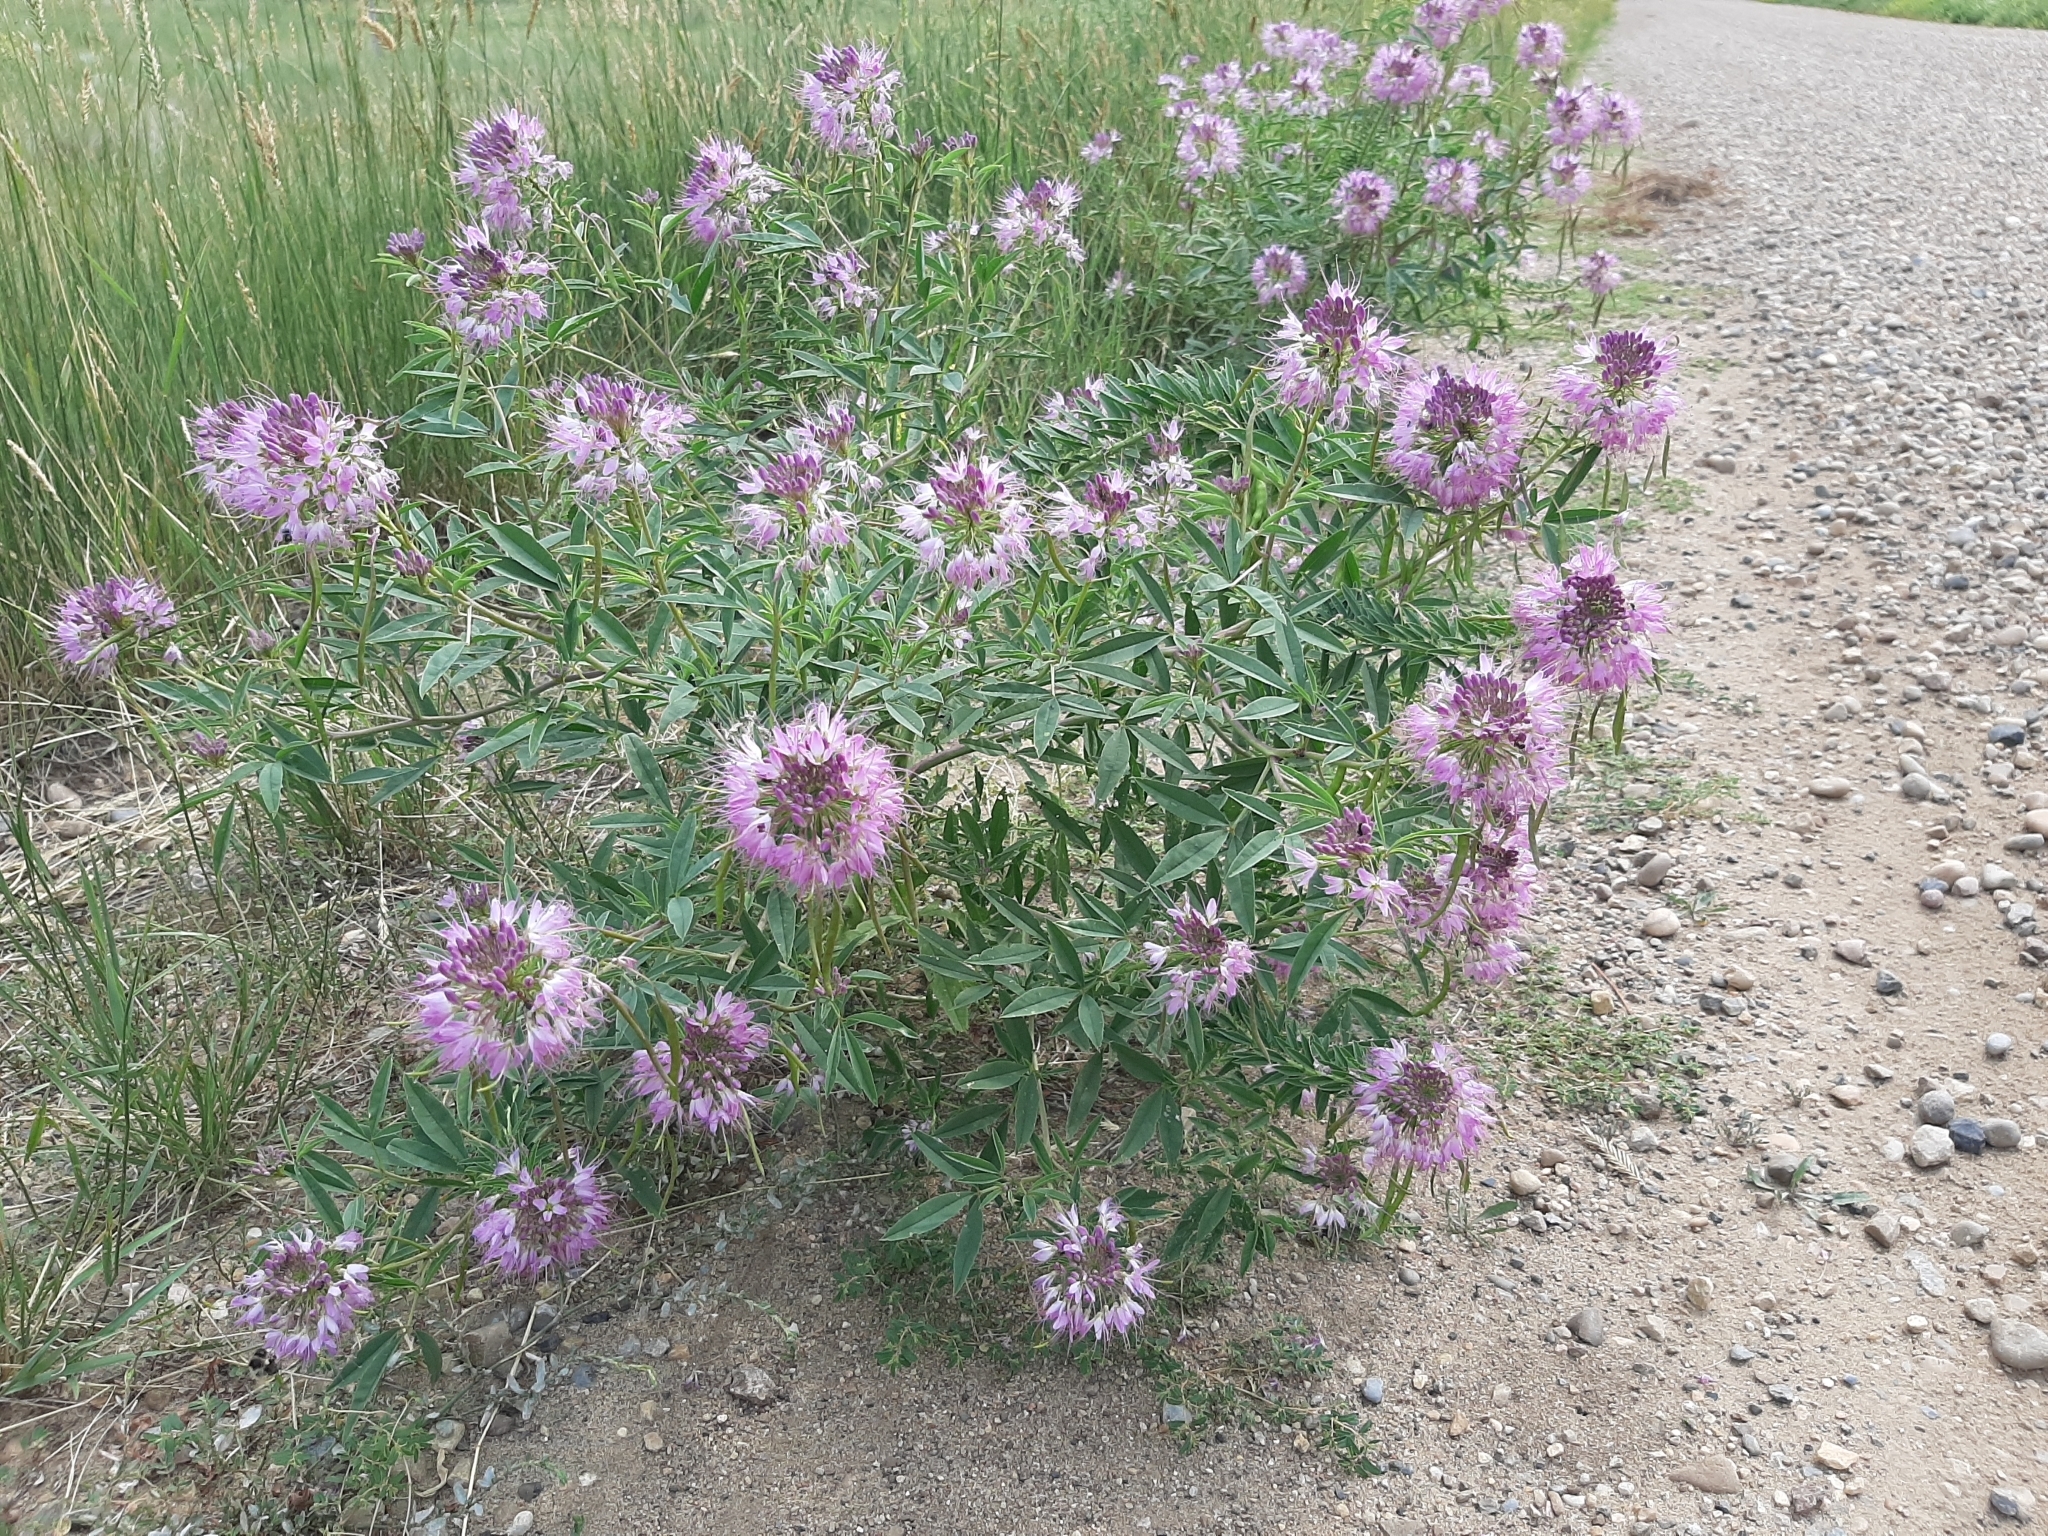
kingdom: Plantae
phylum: Tracheophyta
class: Magnoliopsida
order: Brassicales
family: Cleomaceae
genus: Cleomella
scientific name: Cleomella serrulata
